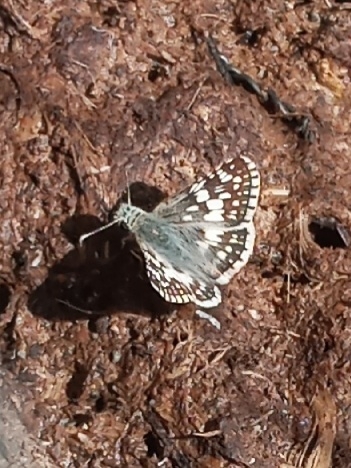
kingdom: Animalia
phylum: Arthropoda
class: Insecta
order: Lepidoptera
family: Hesperiidae
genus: Burnsius
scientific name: Burnsius
